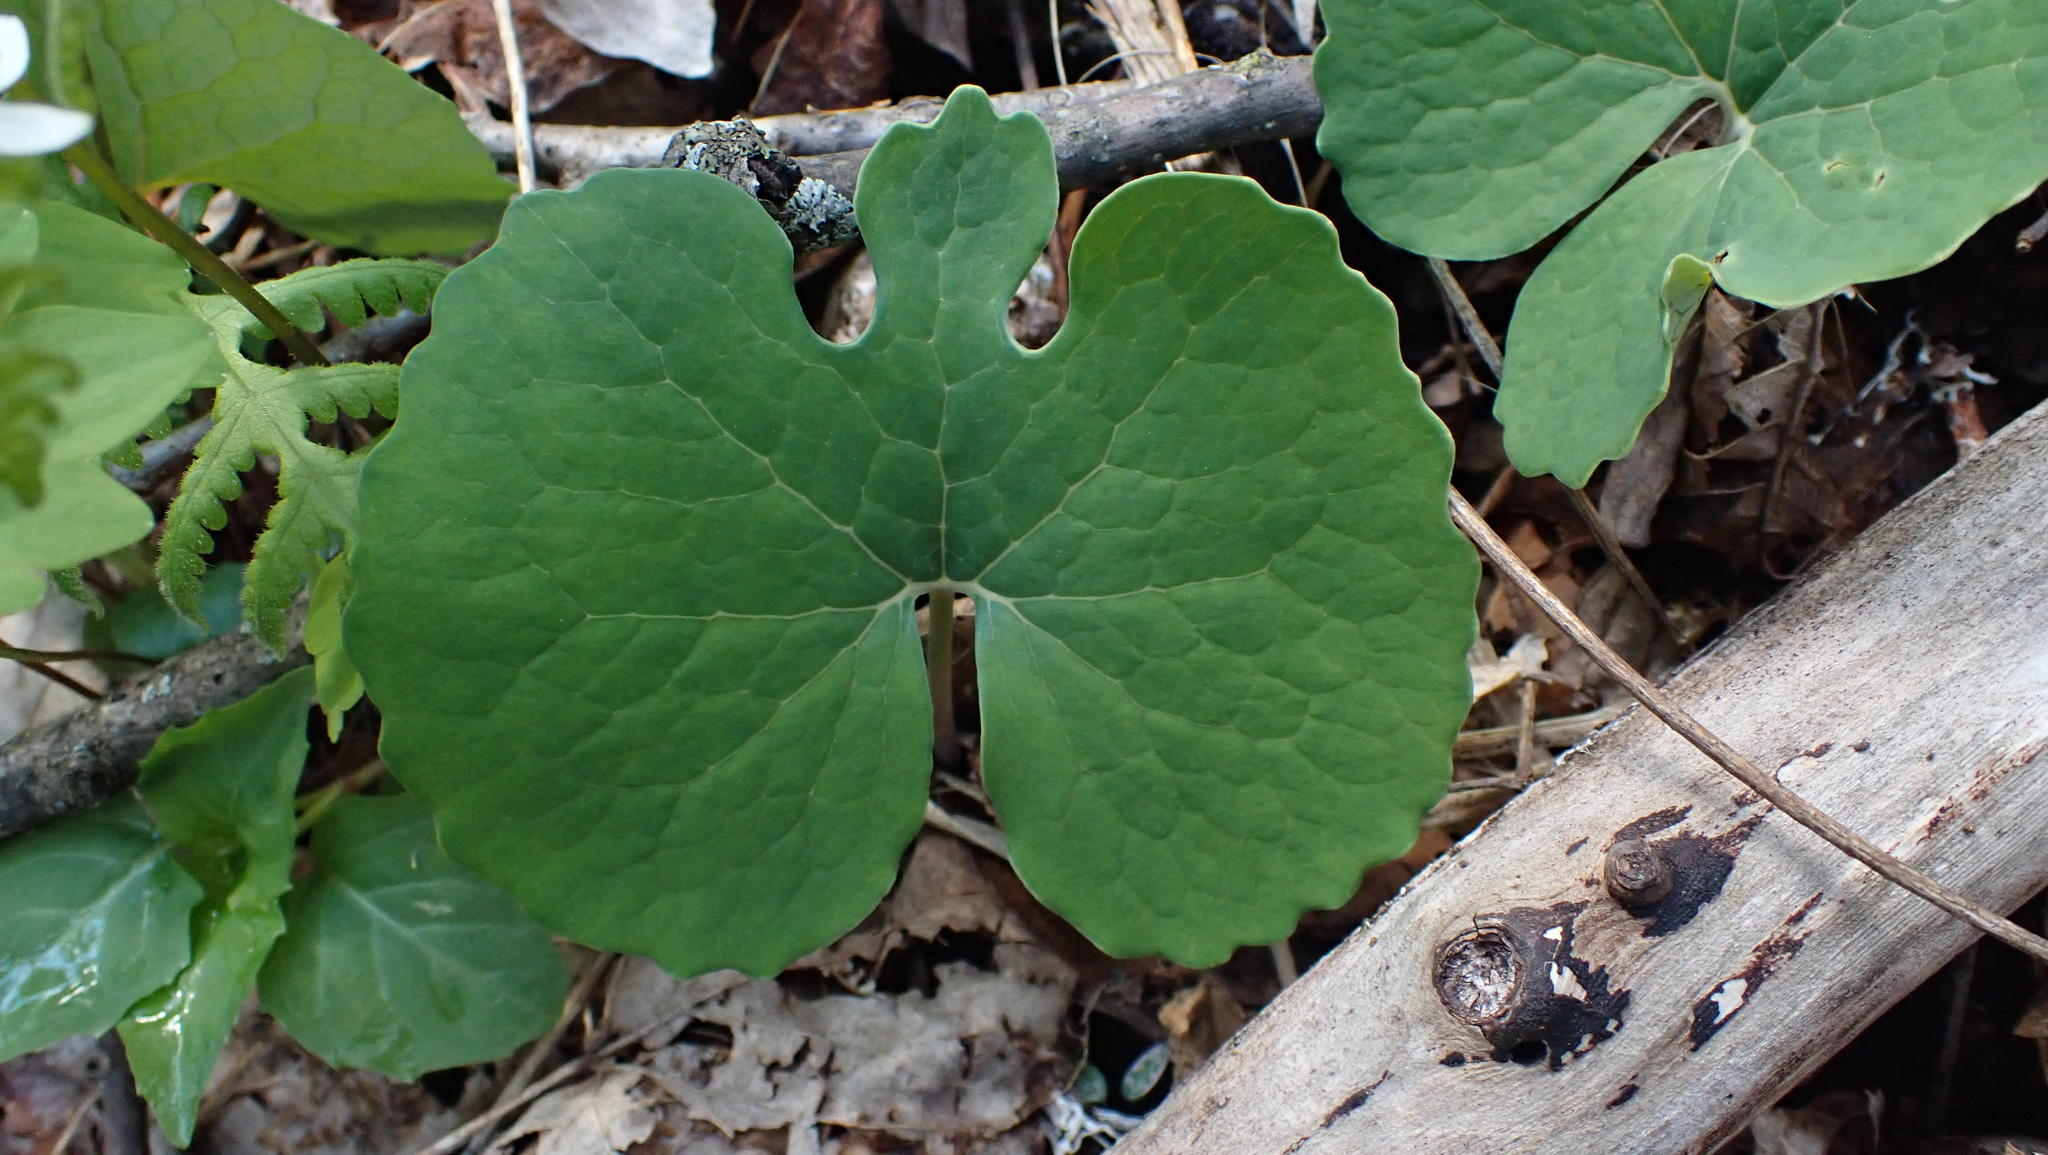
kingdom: Plantae
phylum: Tracheophyta
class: Magnoliopsida
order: Ranunculales
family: Papaveraceae
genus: Sanguinaria
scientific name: Sanguinaria canadensis
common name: Bloodroot
